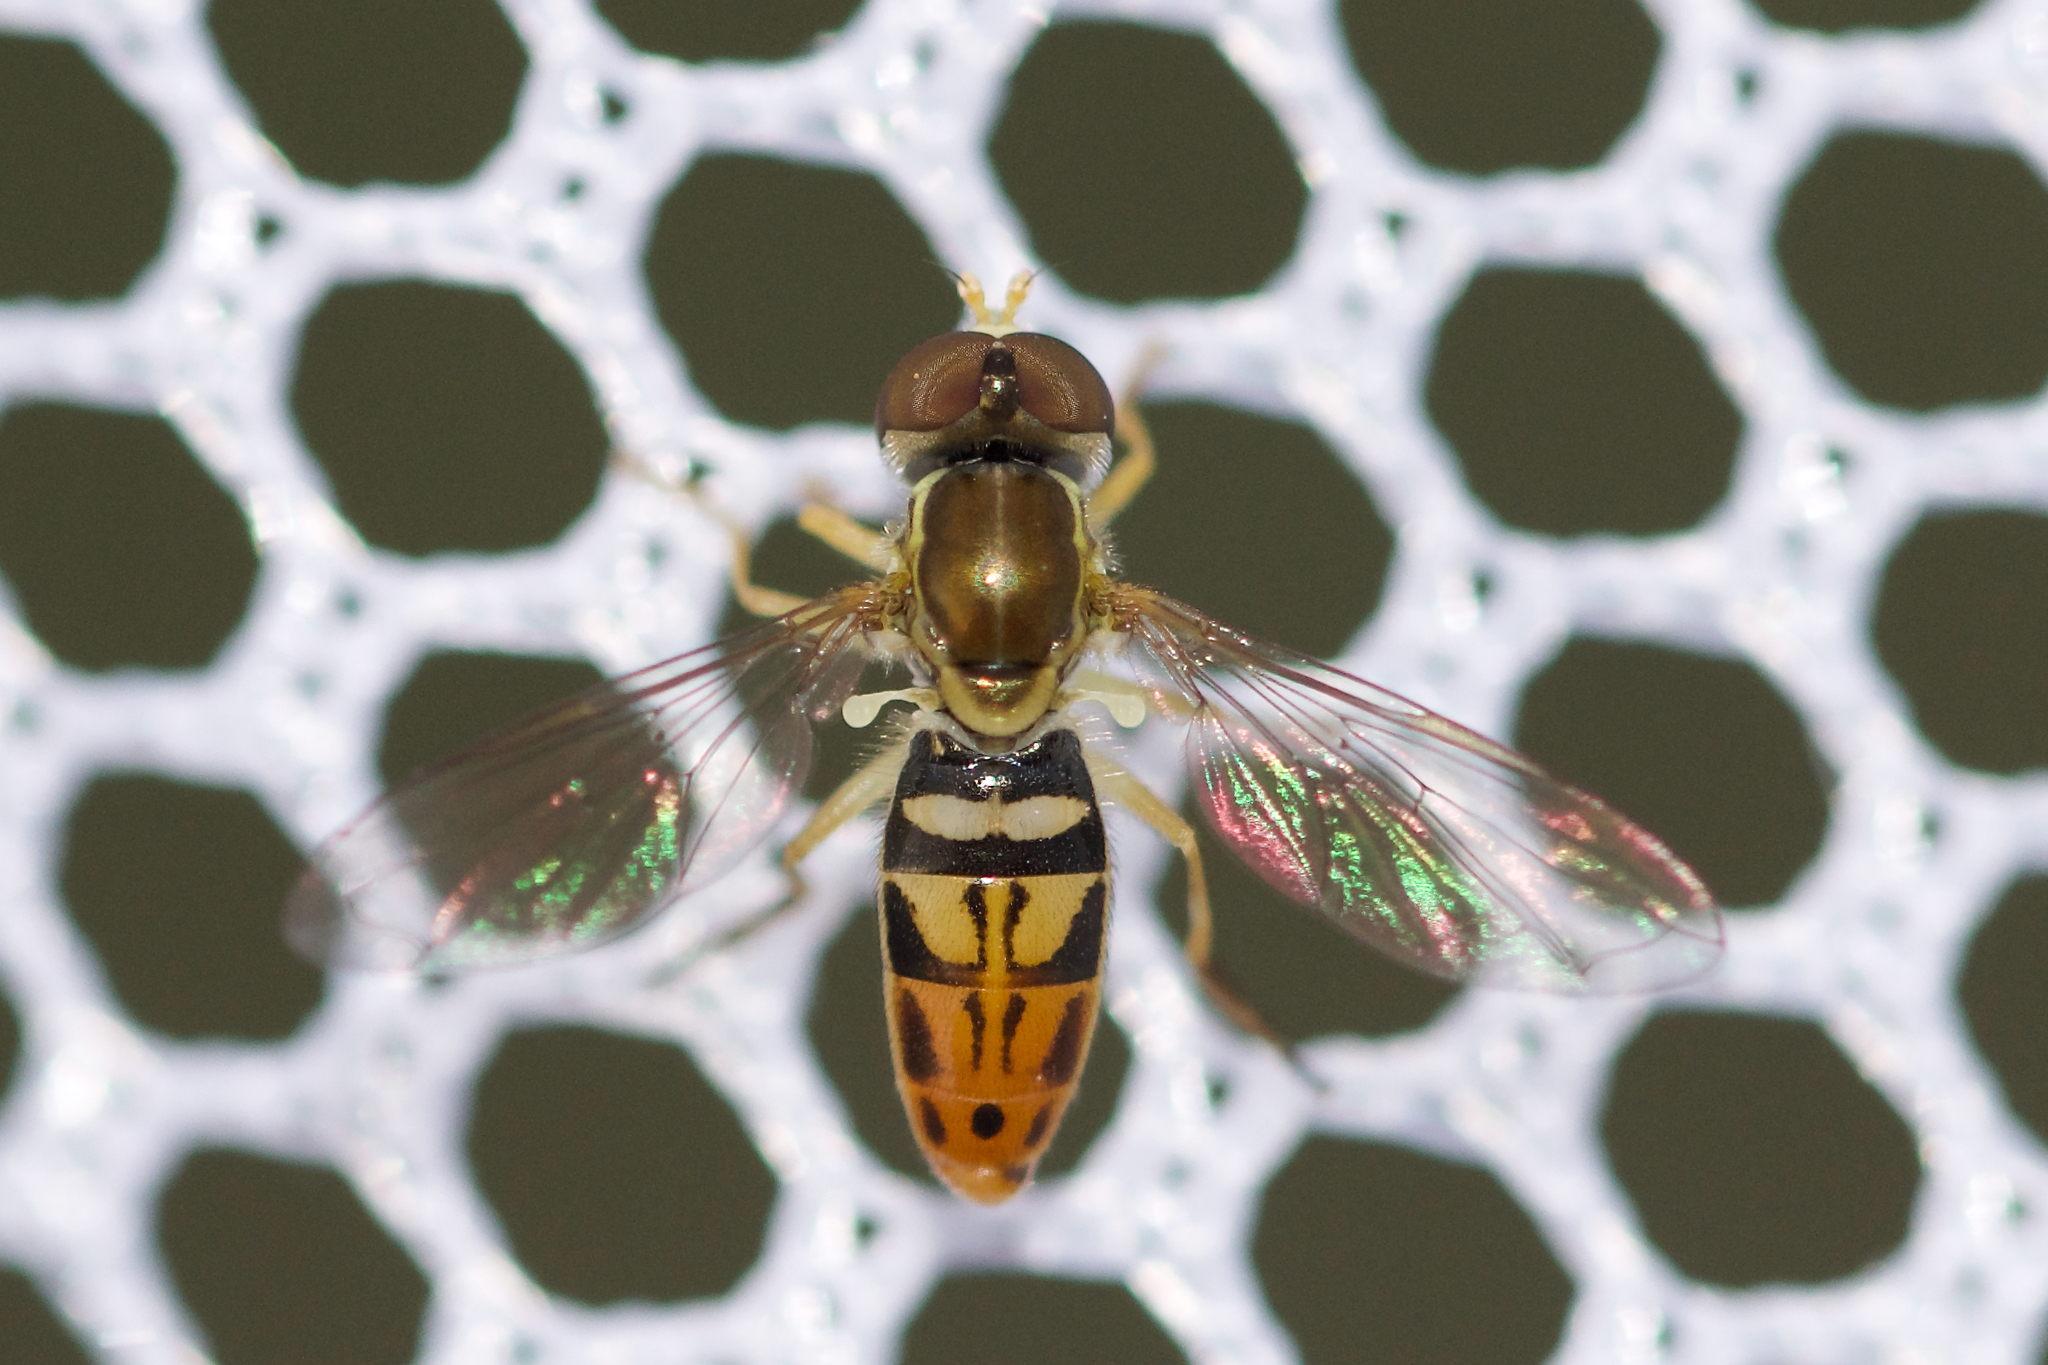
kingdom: Animalia
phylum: Arthropoda
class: Insecta
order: Diptera
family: Syrphidae
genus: Toxomerus
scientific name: Toxomerus marginatus
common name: Syrphid fly
